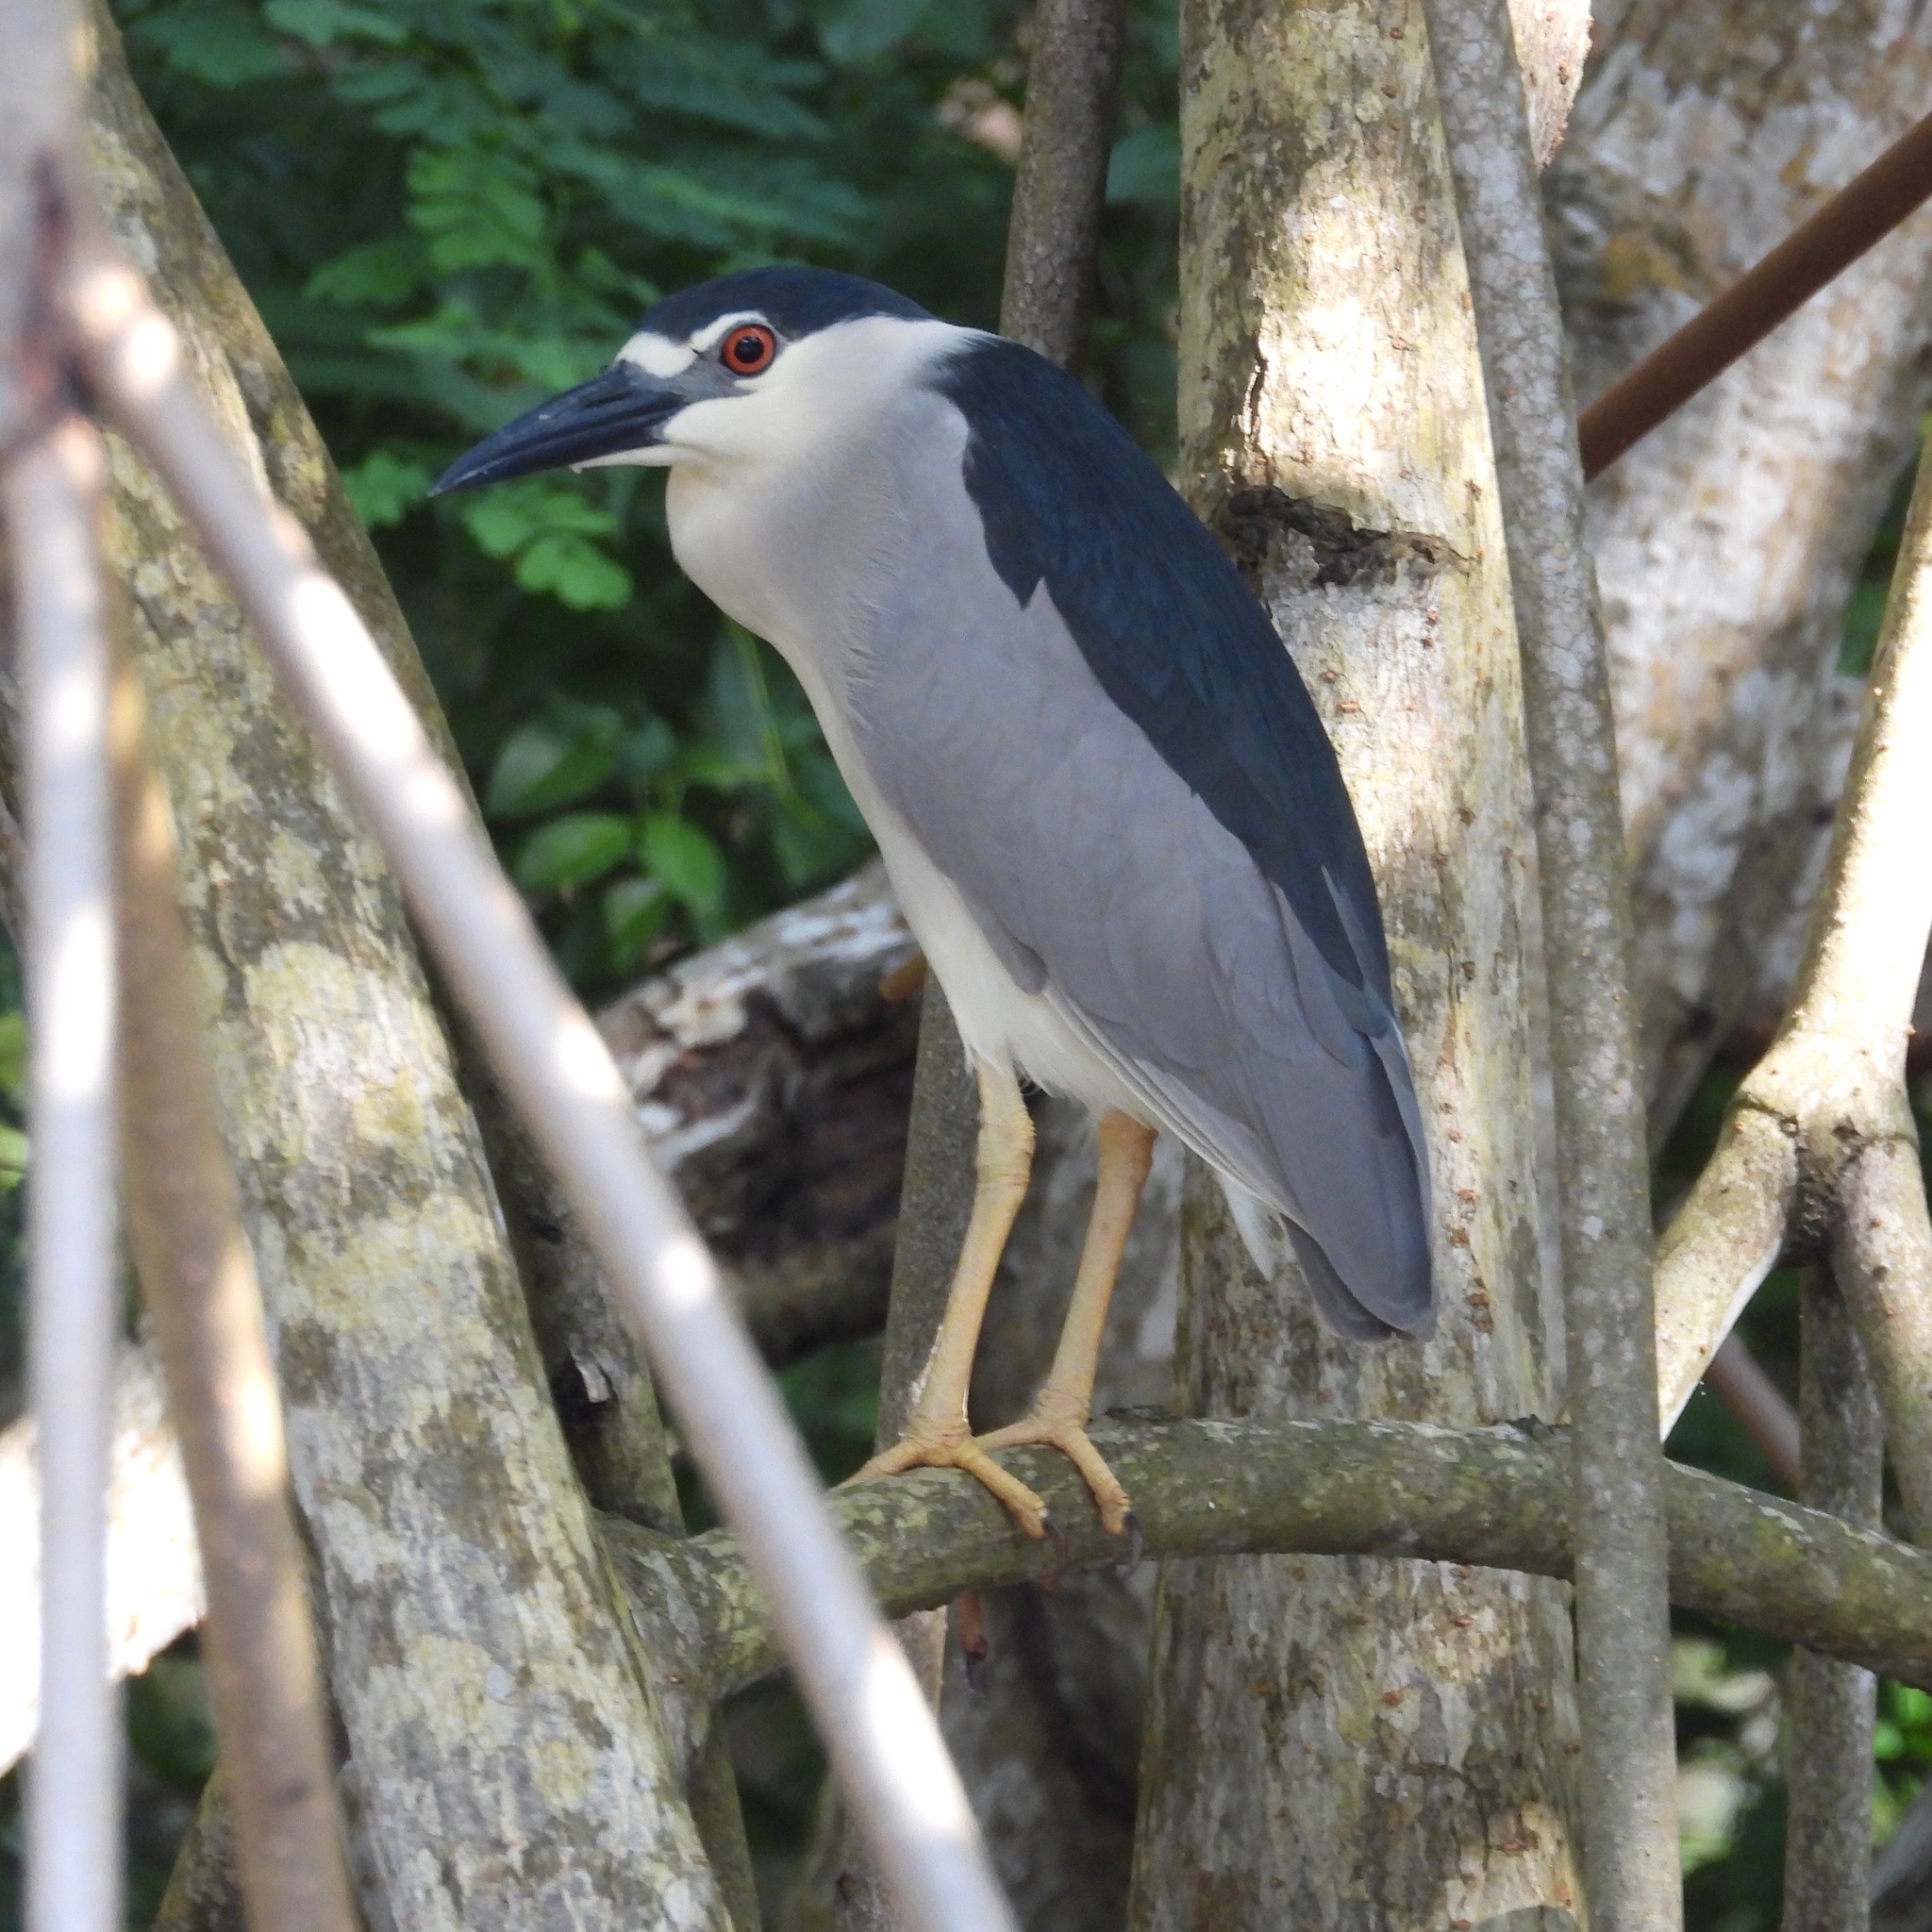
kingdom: Animalia
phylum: Chordata
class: Aves
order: Pelecaniformes
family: Ardeidae
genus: Nycticorax
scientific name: Nycticorax nycticorax
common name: Black-crowned night heron
